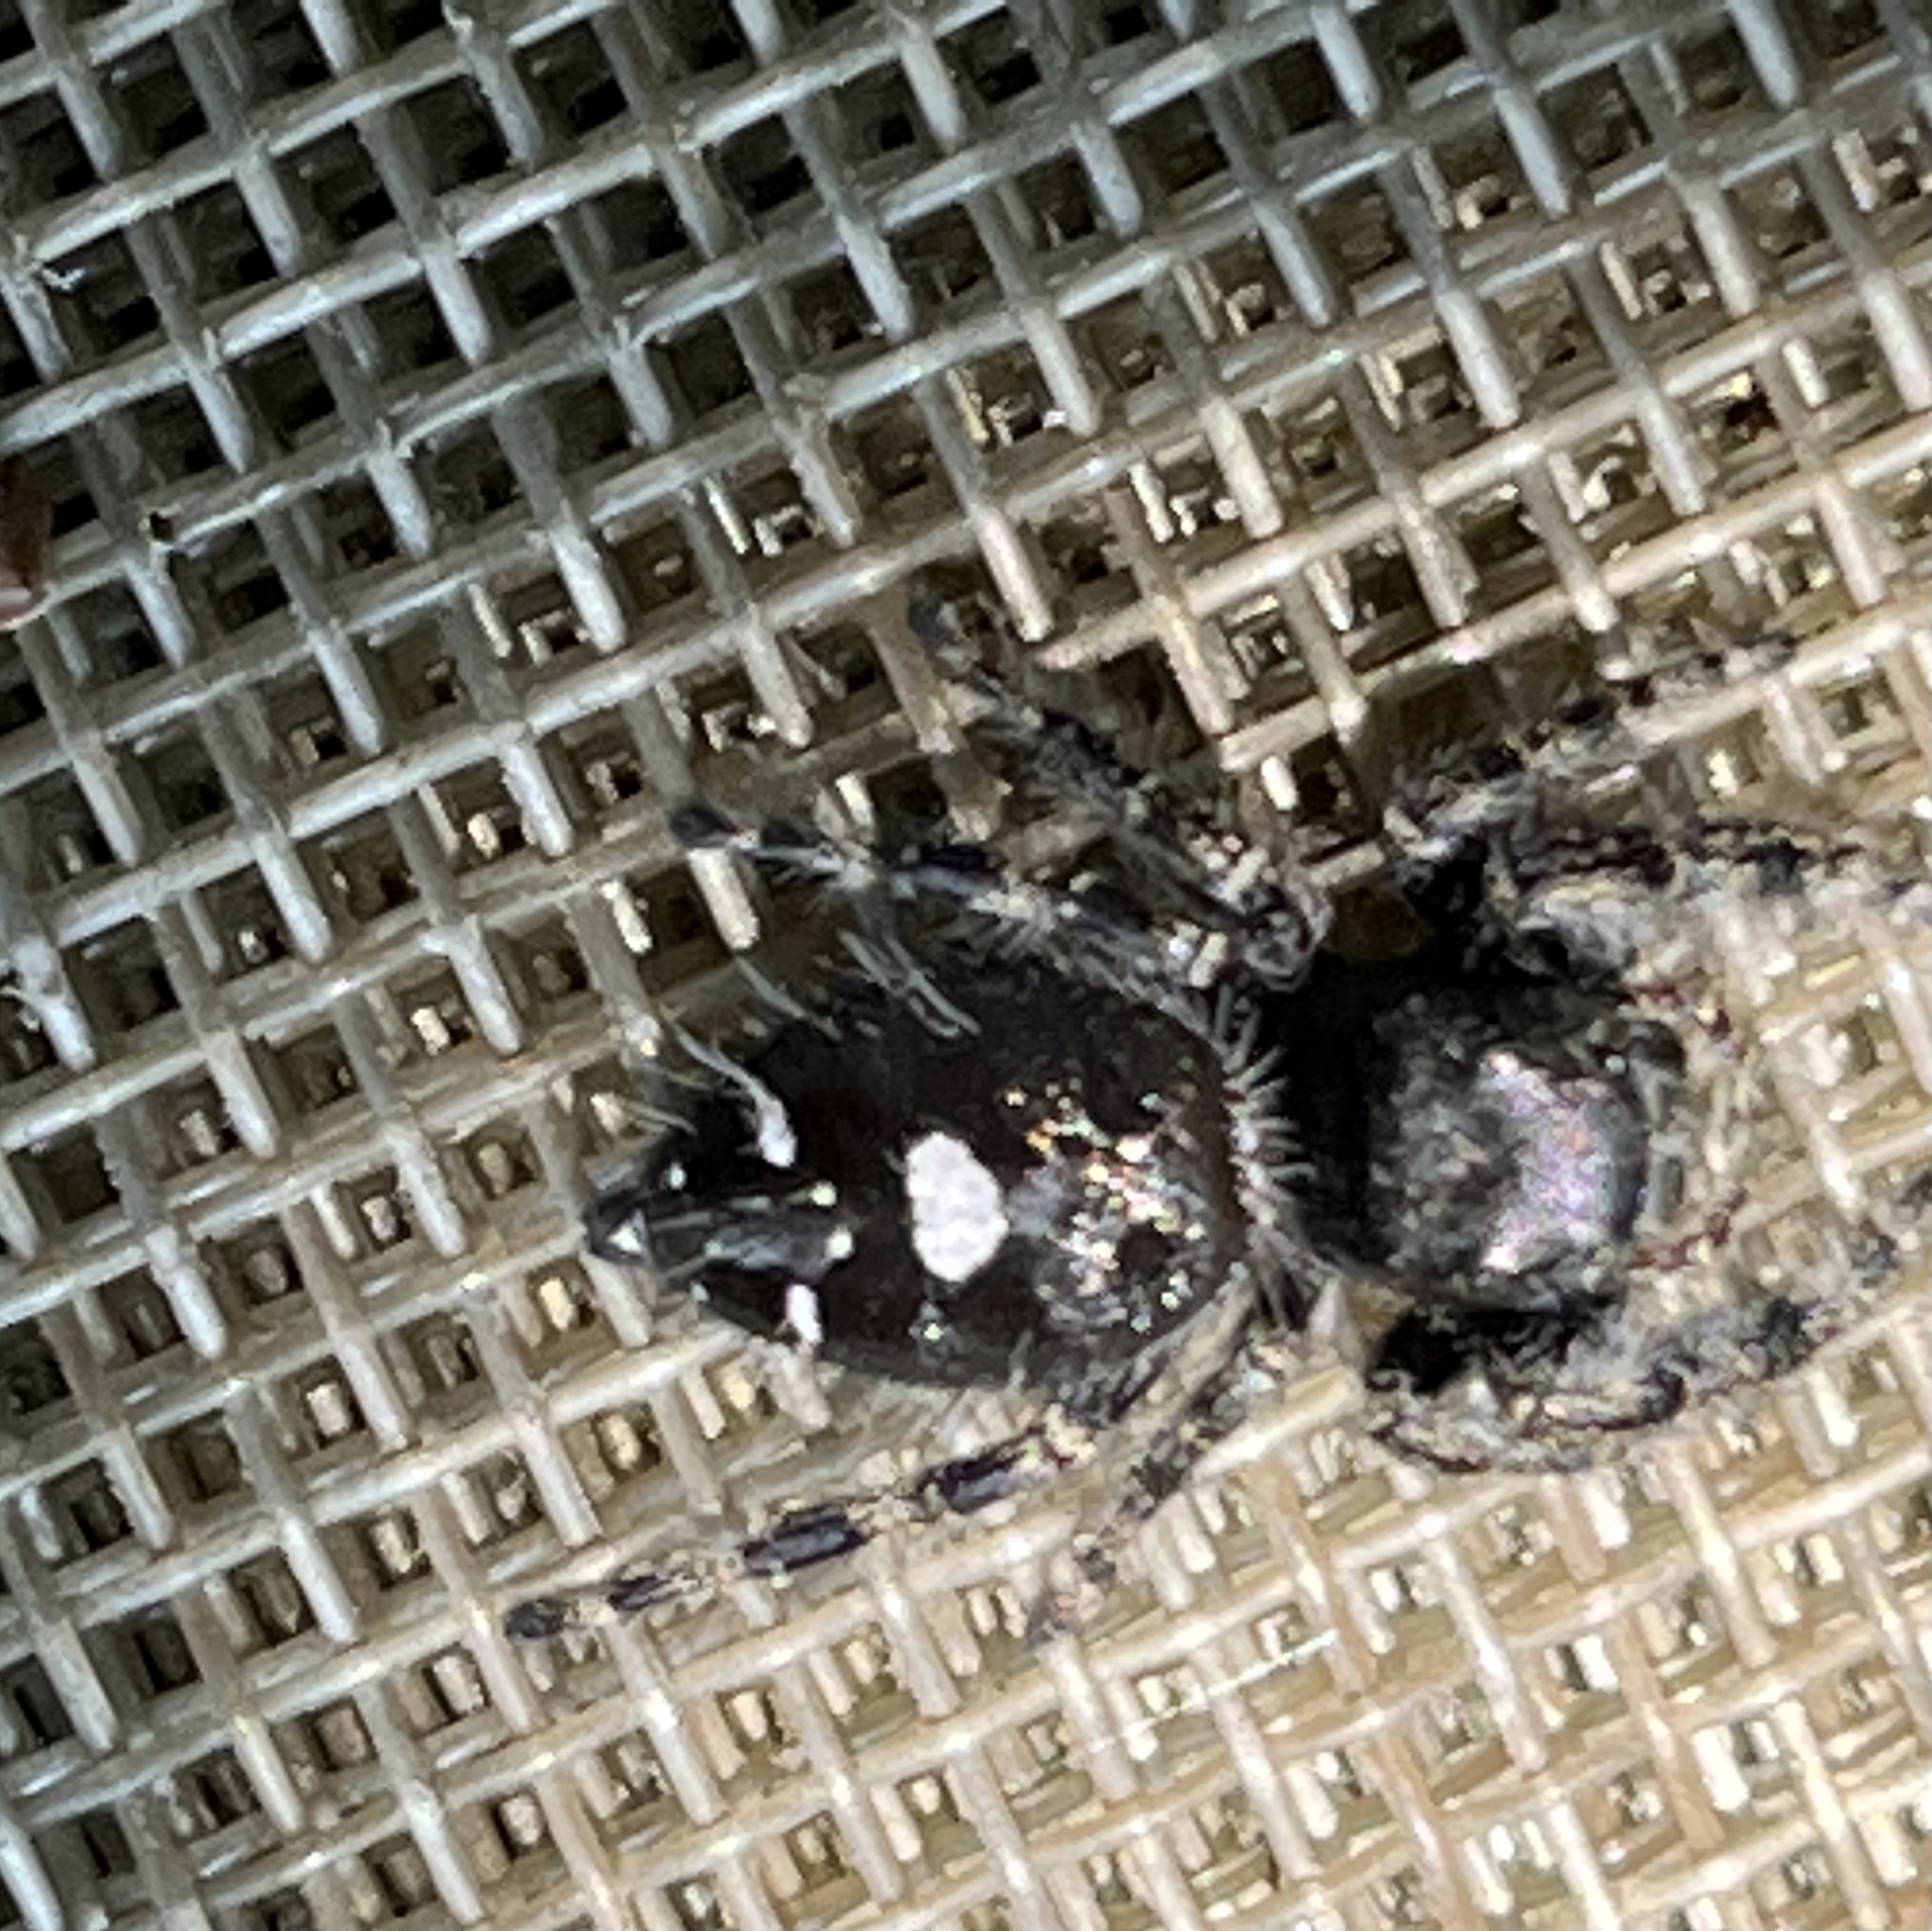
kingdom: Animalia
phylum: Arthropoda
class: Arachnida
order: Araneae
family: Salticidae
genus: Phidippus
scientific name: Phidippus audax
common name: Bold jumper
